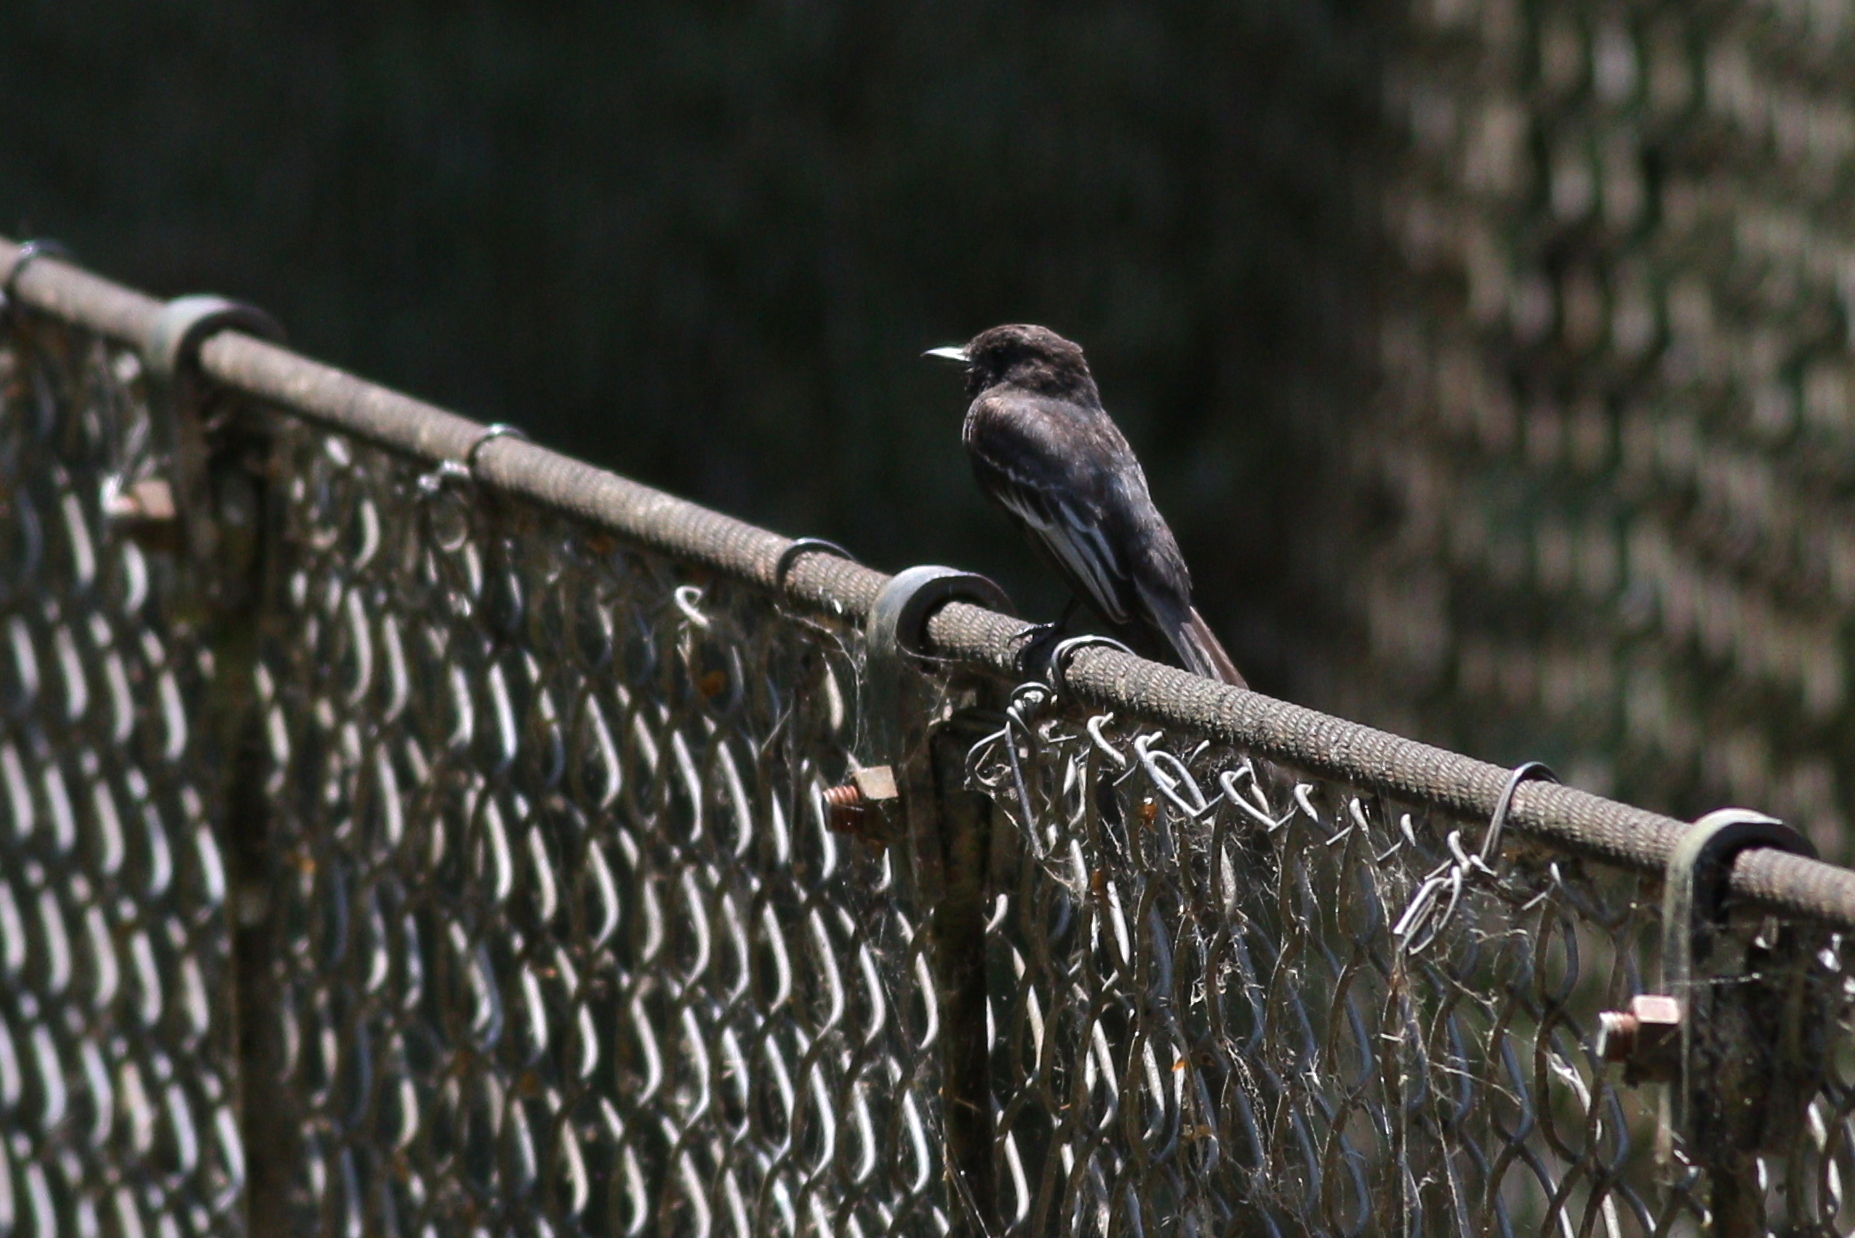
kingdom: Animalia
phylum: Chordata
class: Aves
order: Passeriformes
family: Tyrannidae
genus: Sayornis
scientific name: Sayornis nigricans
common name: Black phoebe
